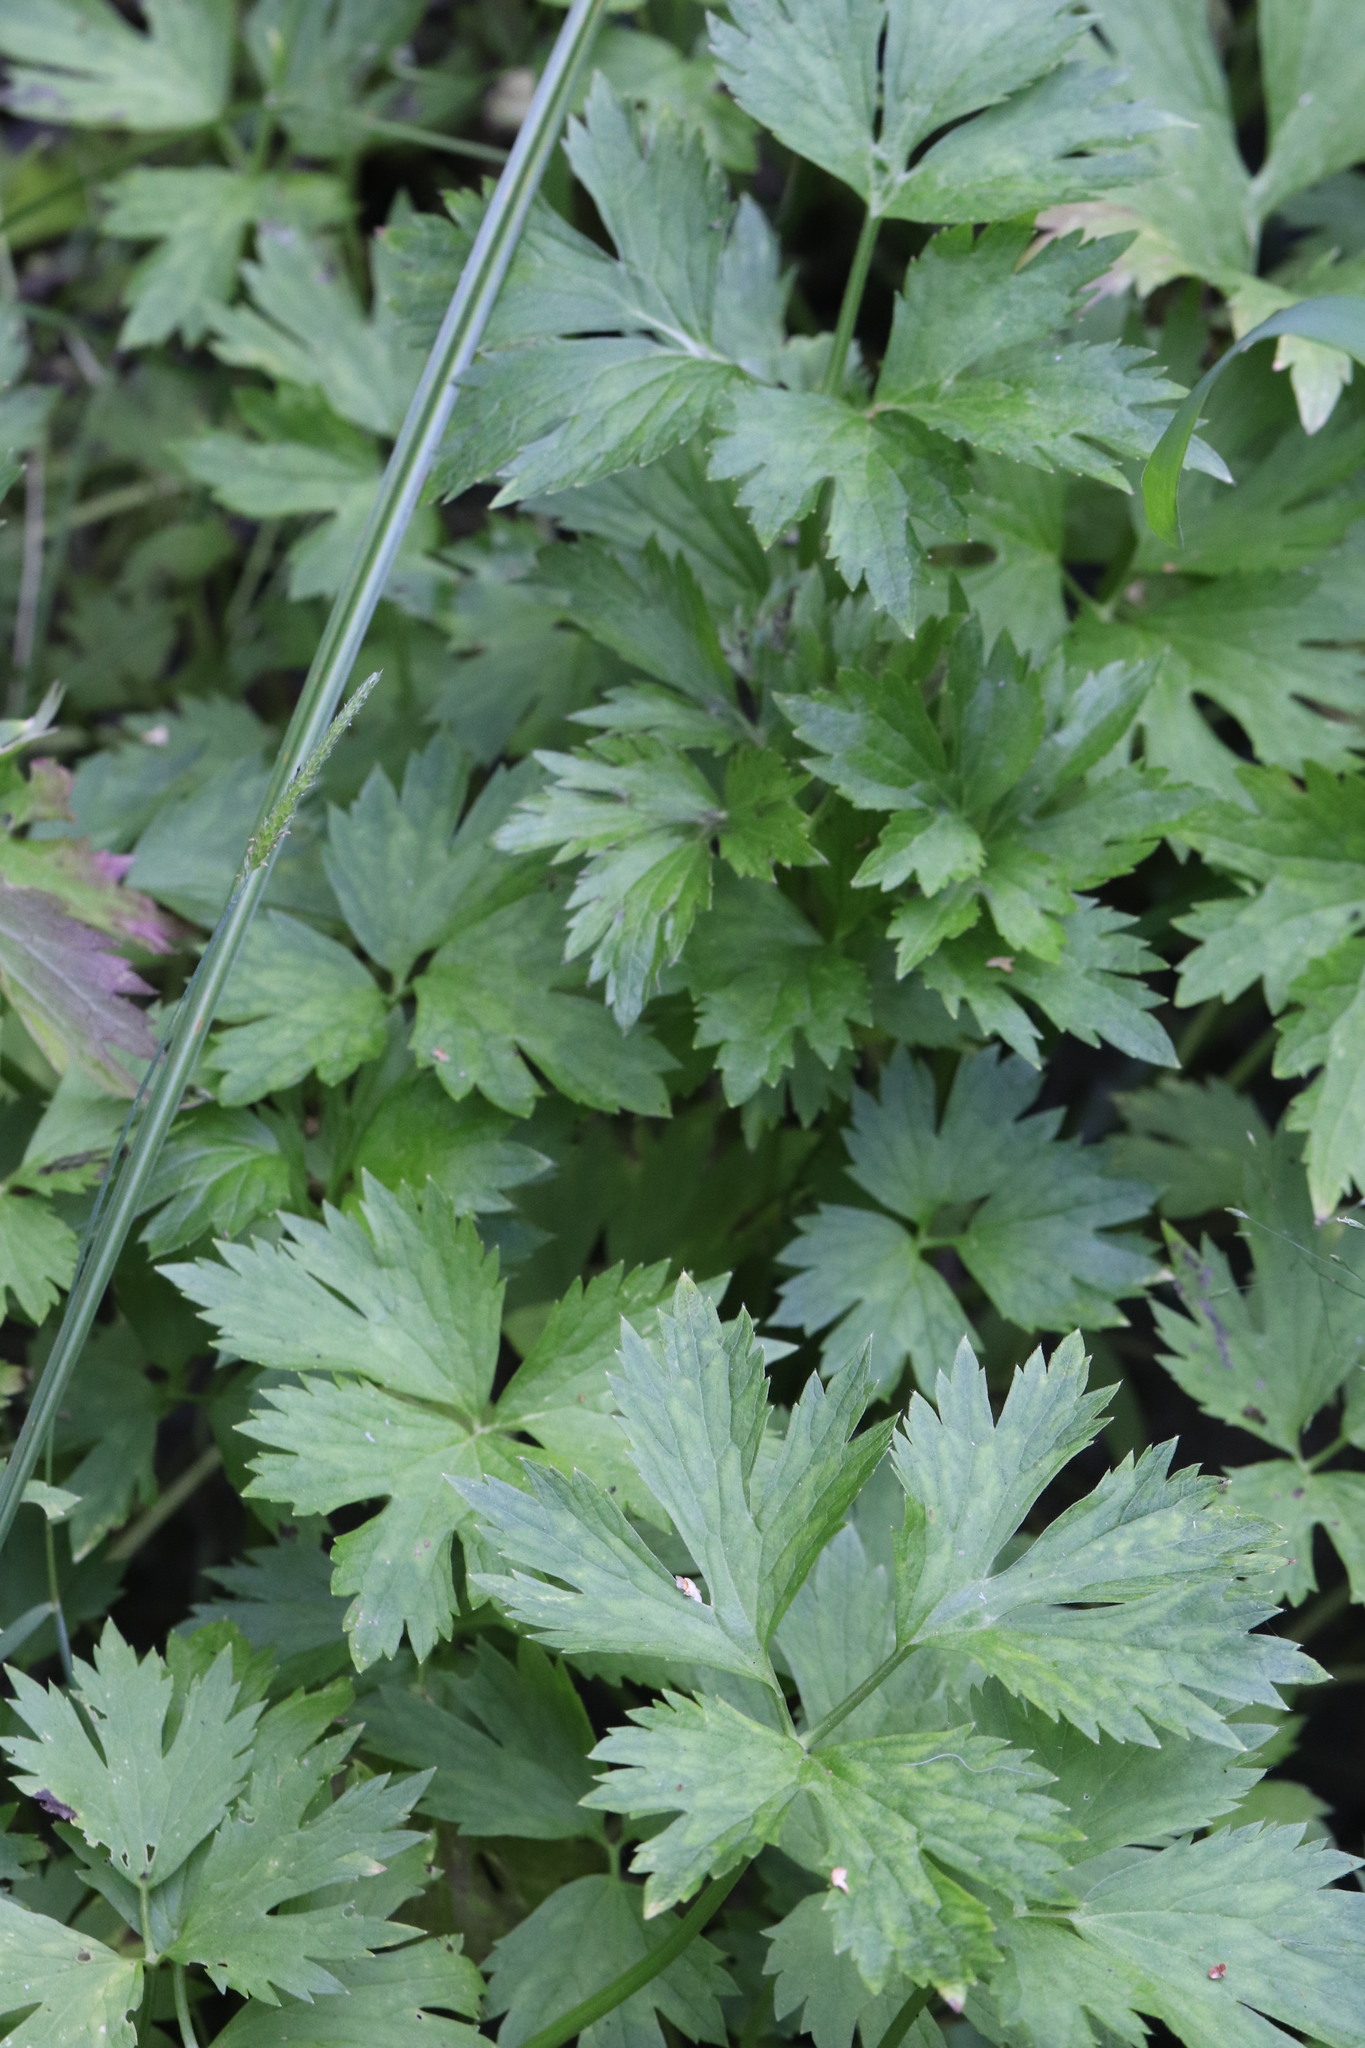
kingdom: Plantae
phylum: Tracheophyta
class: Magnoliopsida
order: Ranunculales
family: Ranunculaceae
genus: Ranunculus
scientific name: Ranunculus repens
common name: Creeping buttercup
